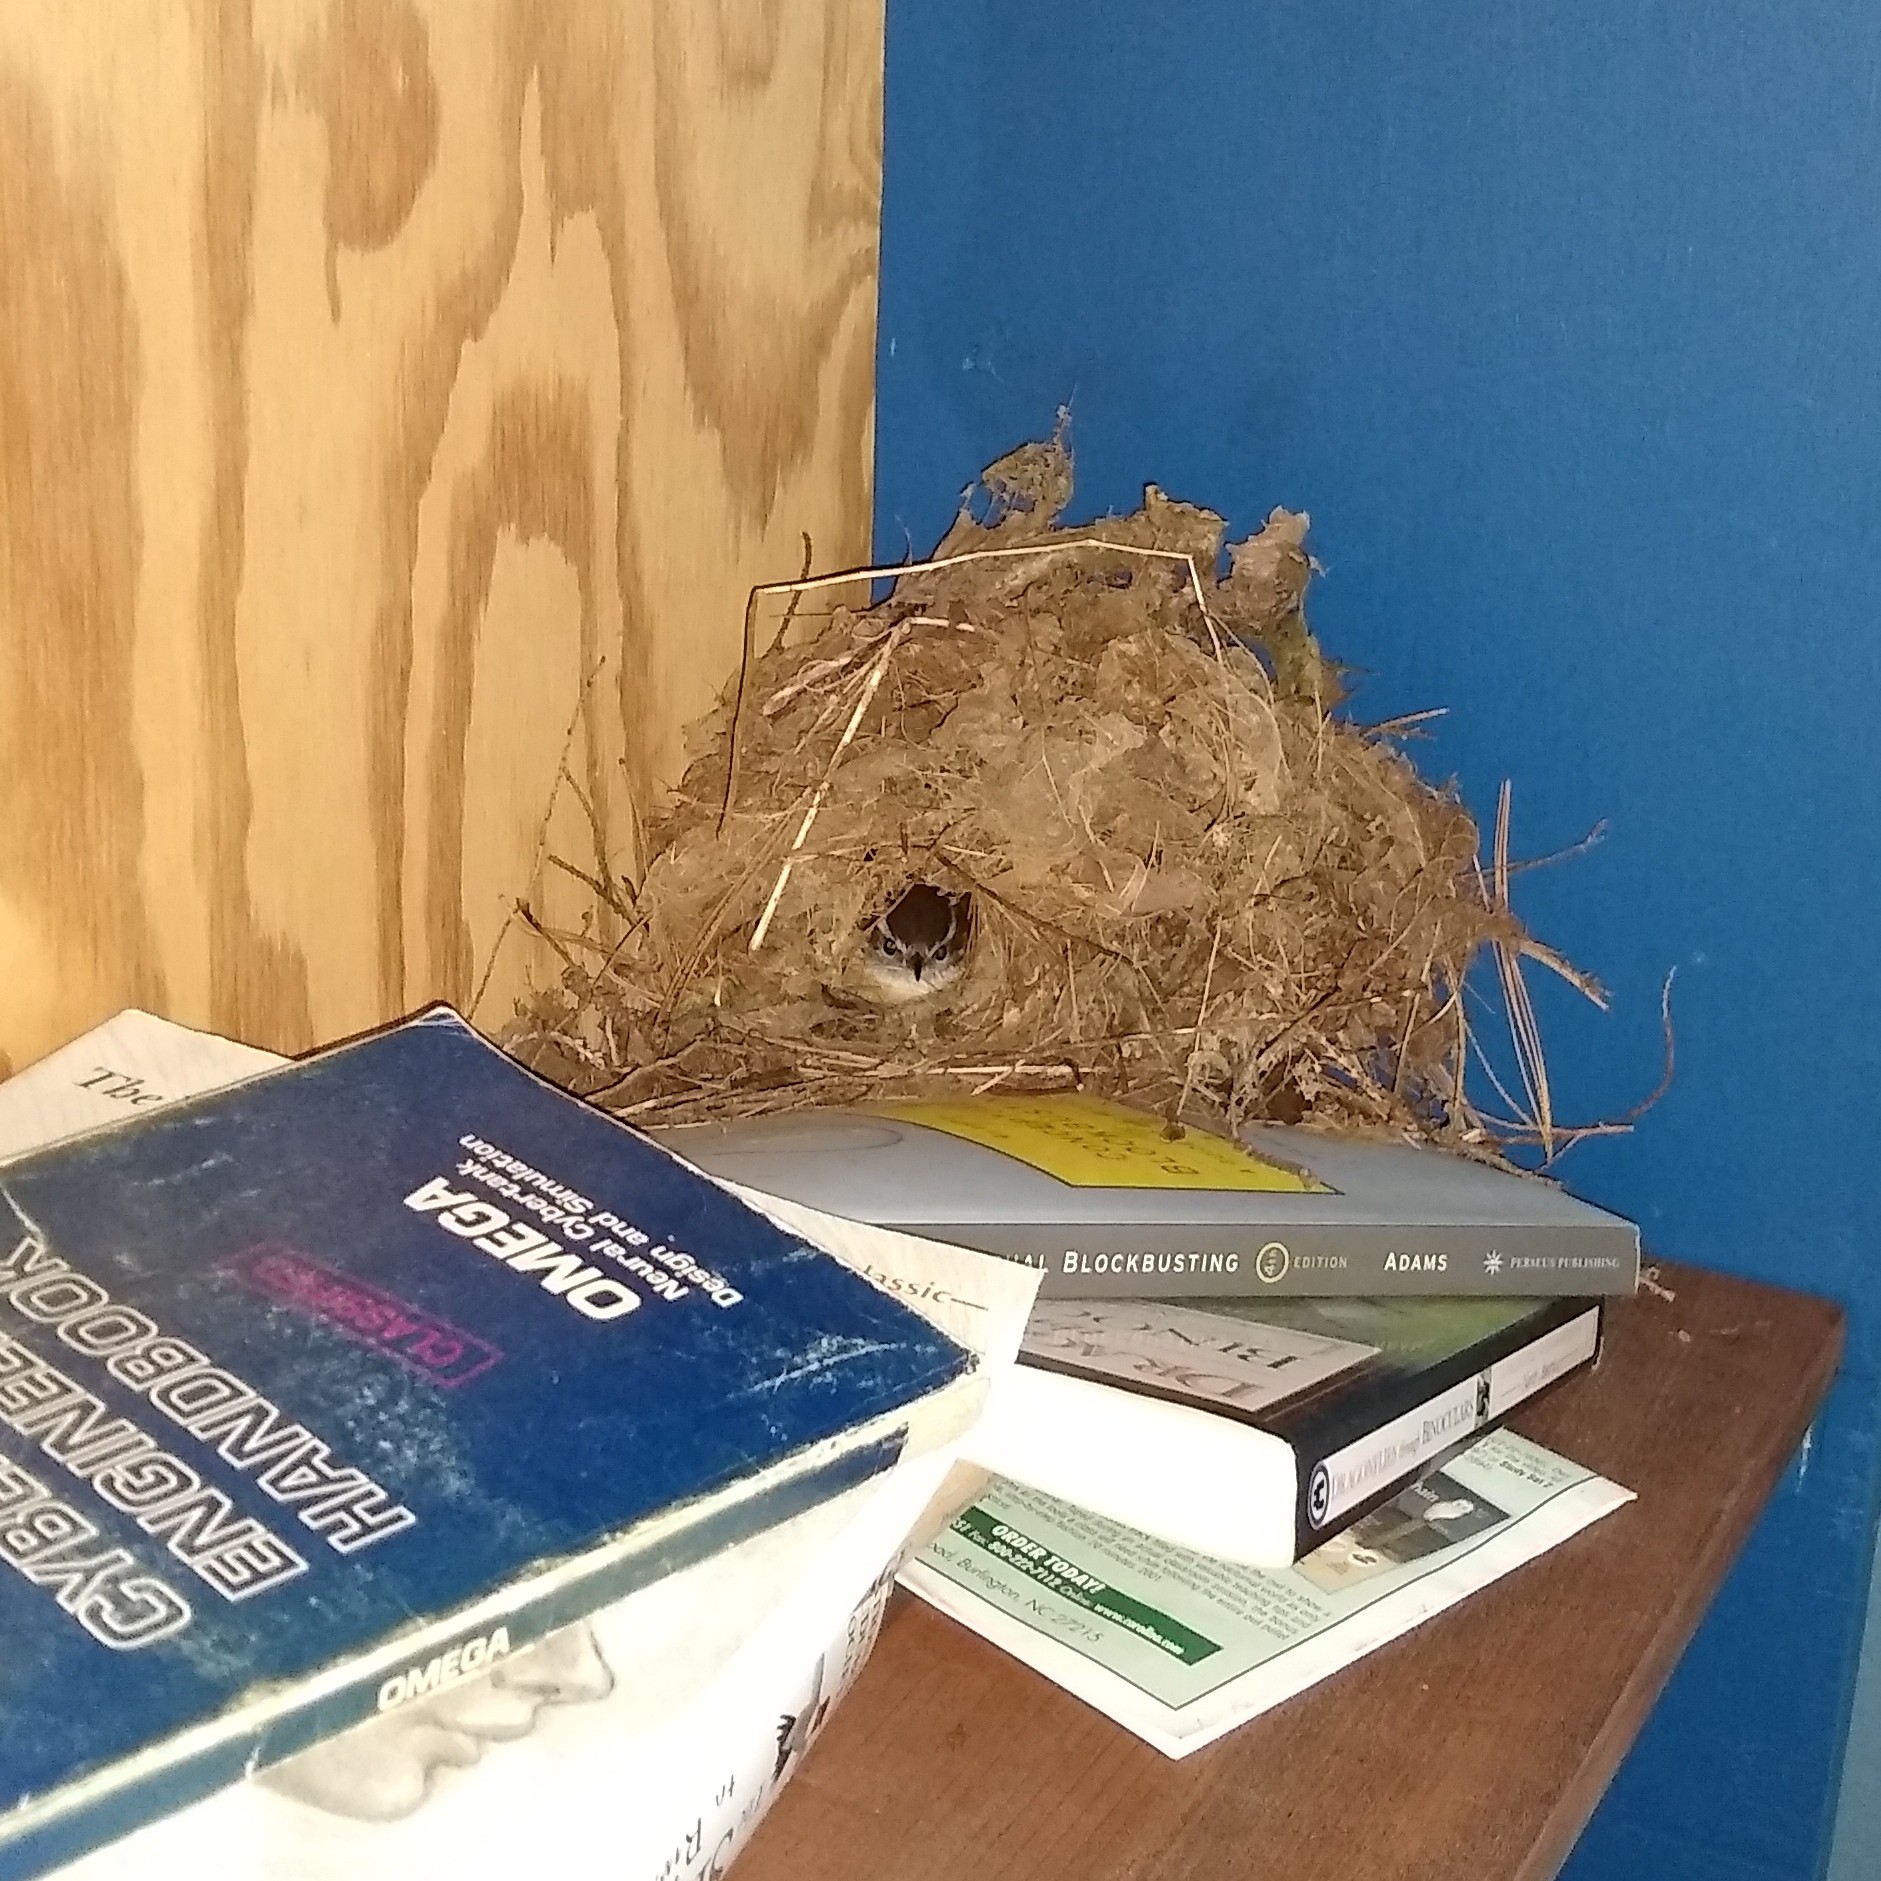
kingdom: Animalia
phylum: Chordata
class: Aves
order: Passeriformes
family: Troglodytidae
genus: Thryothorus
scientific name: Thryothorus ludovicianus
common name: Carolina wren
